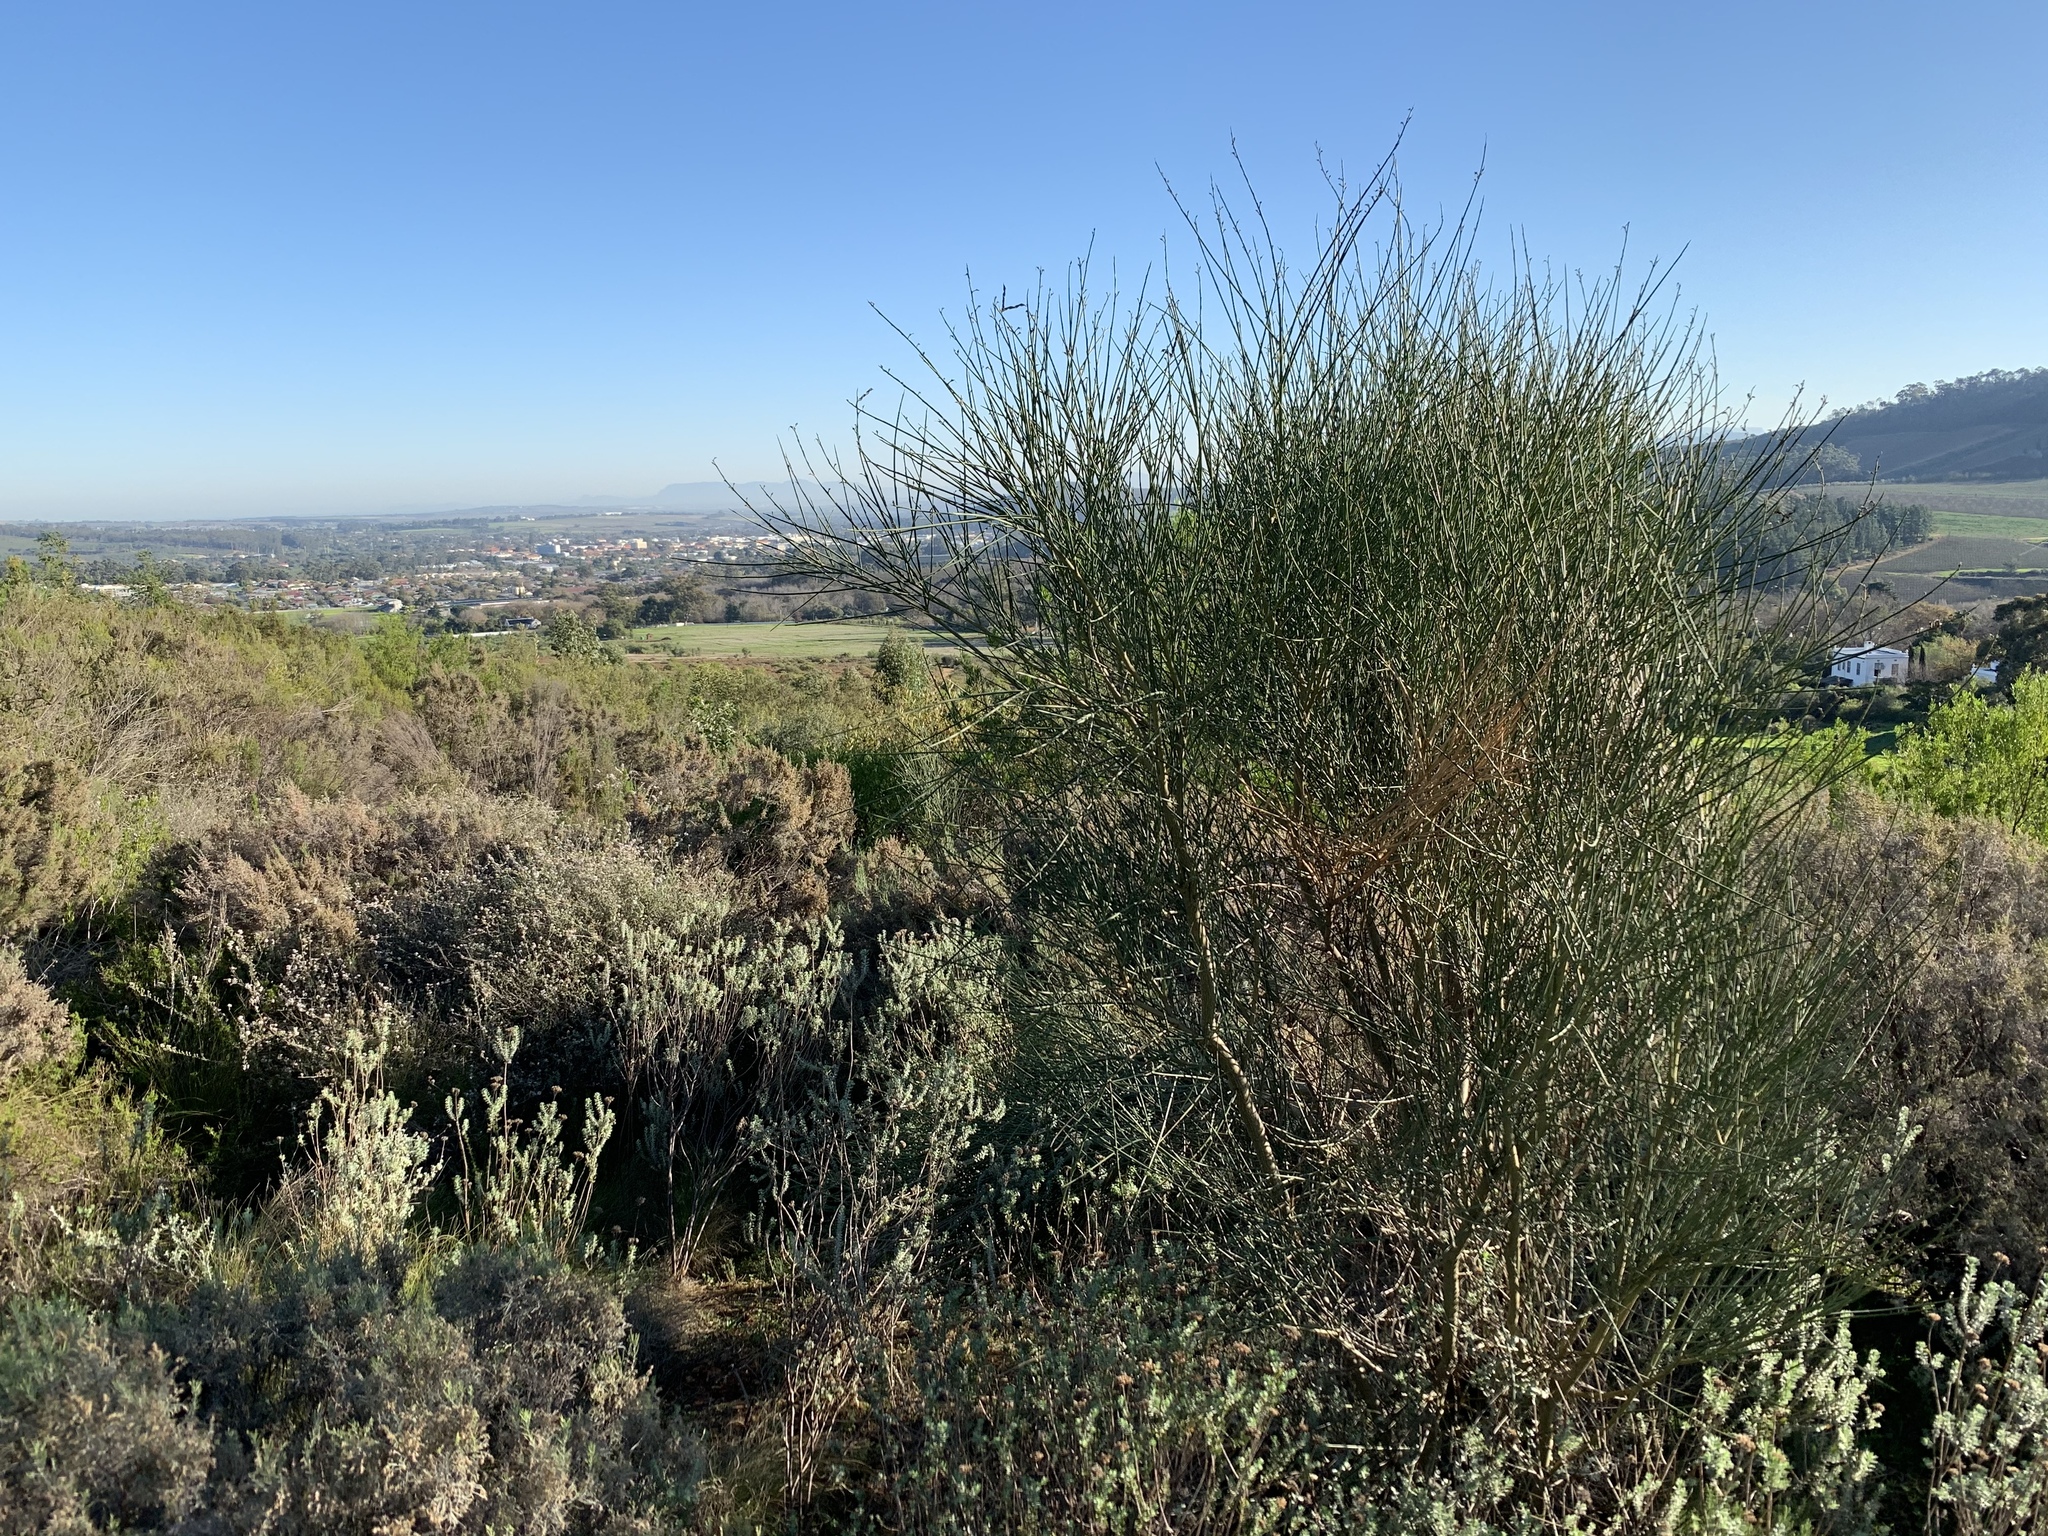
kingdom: Plantae
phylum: Tracheophyta
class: Magnoliopsida
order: Fabales
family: Fabaceae
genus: Spartium
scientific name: Spartium junceum
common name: Spanish broom
